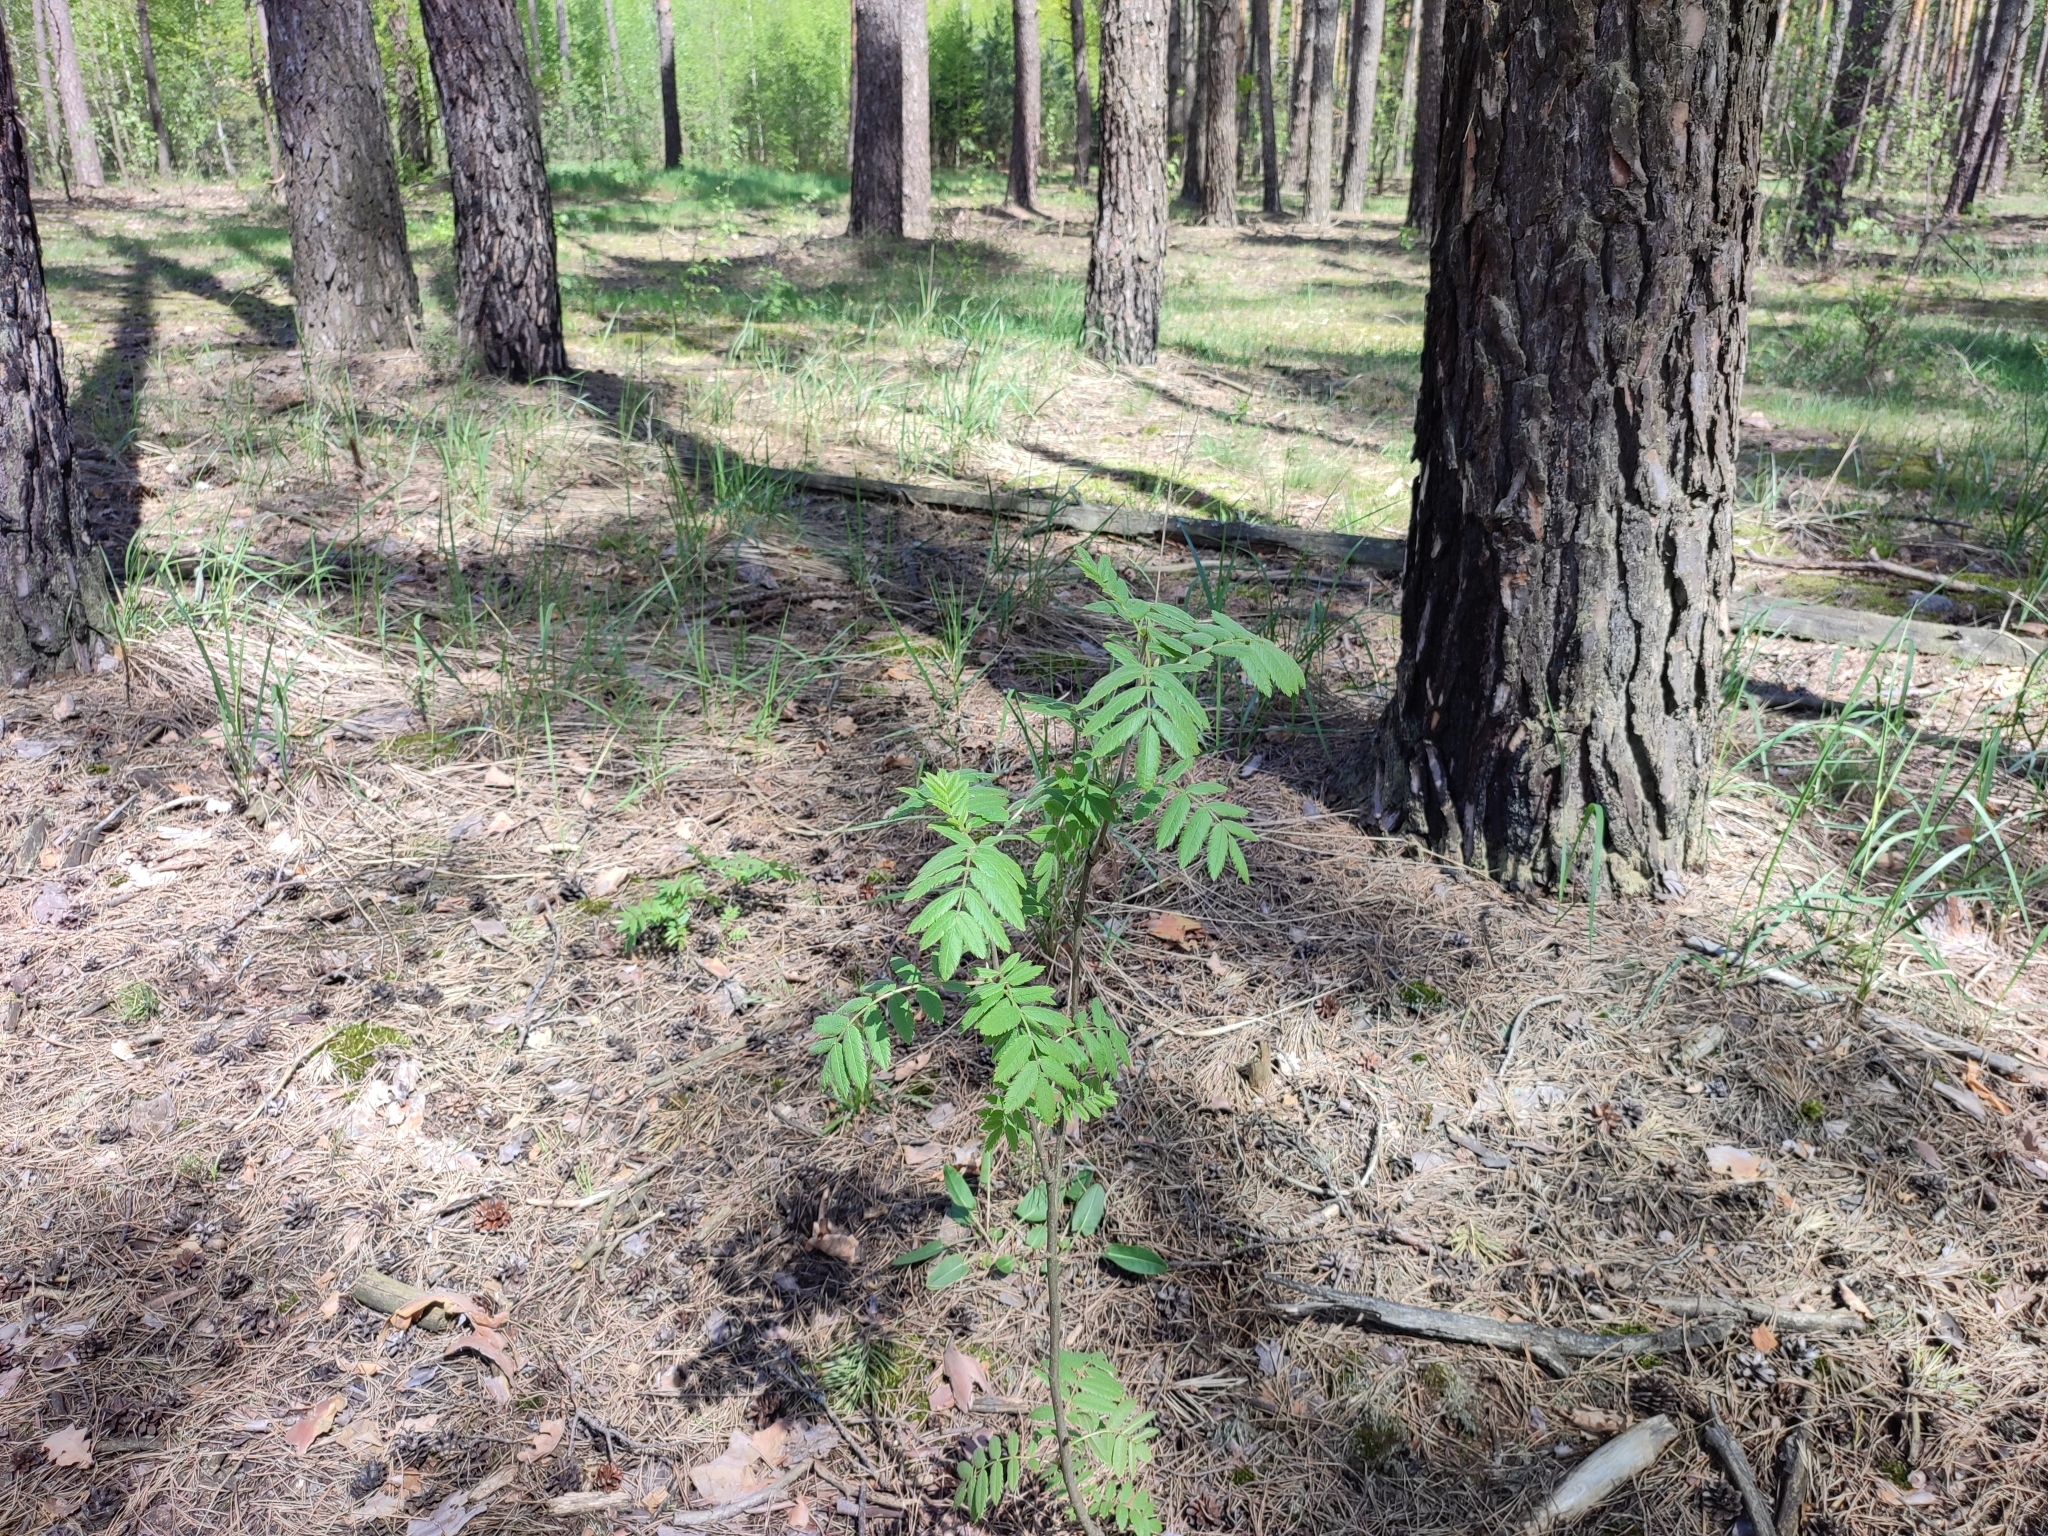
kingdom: Plantae
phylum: Tracheophyta
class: Magnoliopsida
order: Rosales
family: Rosaceae
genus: Sorbus
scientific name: Sorbus aucuparia
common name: Rowan
